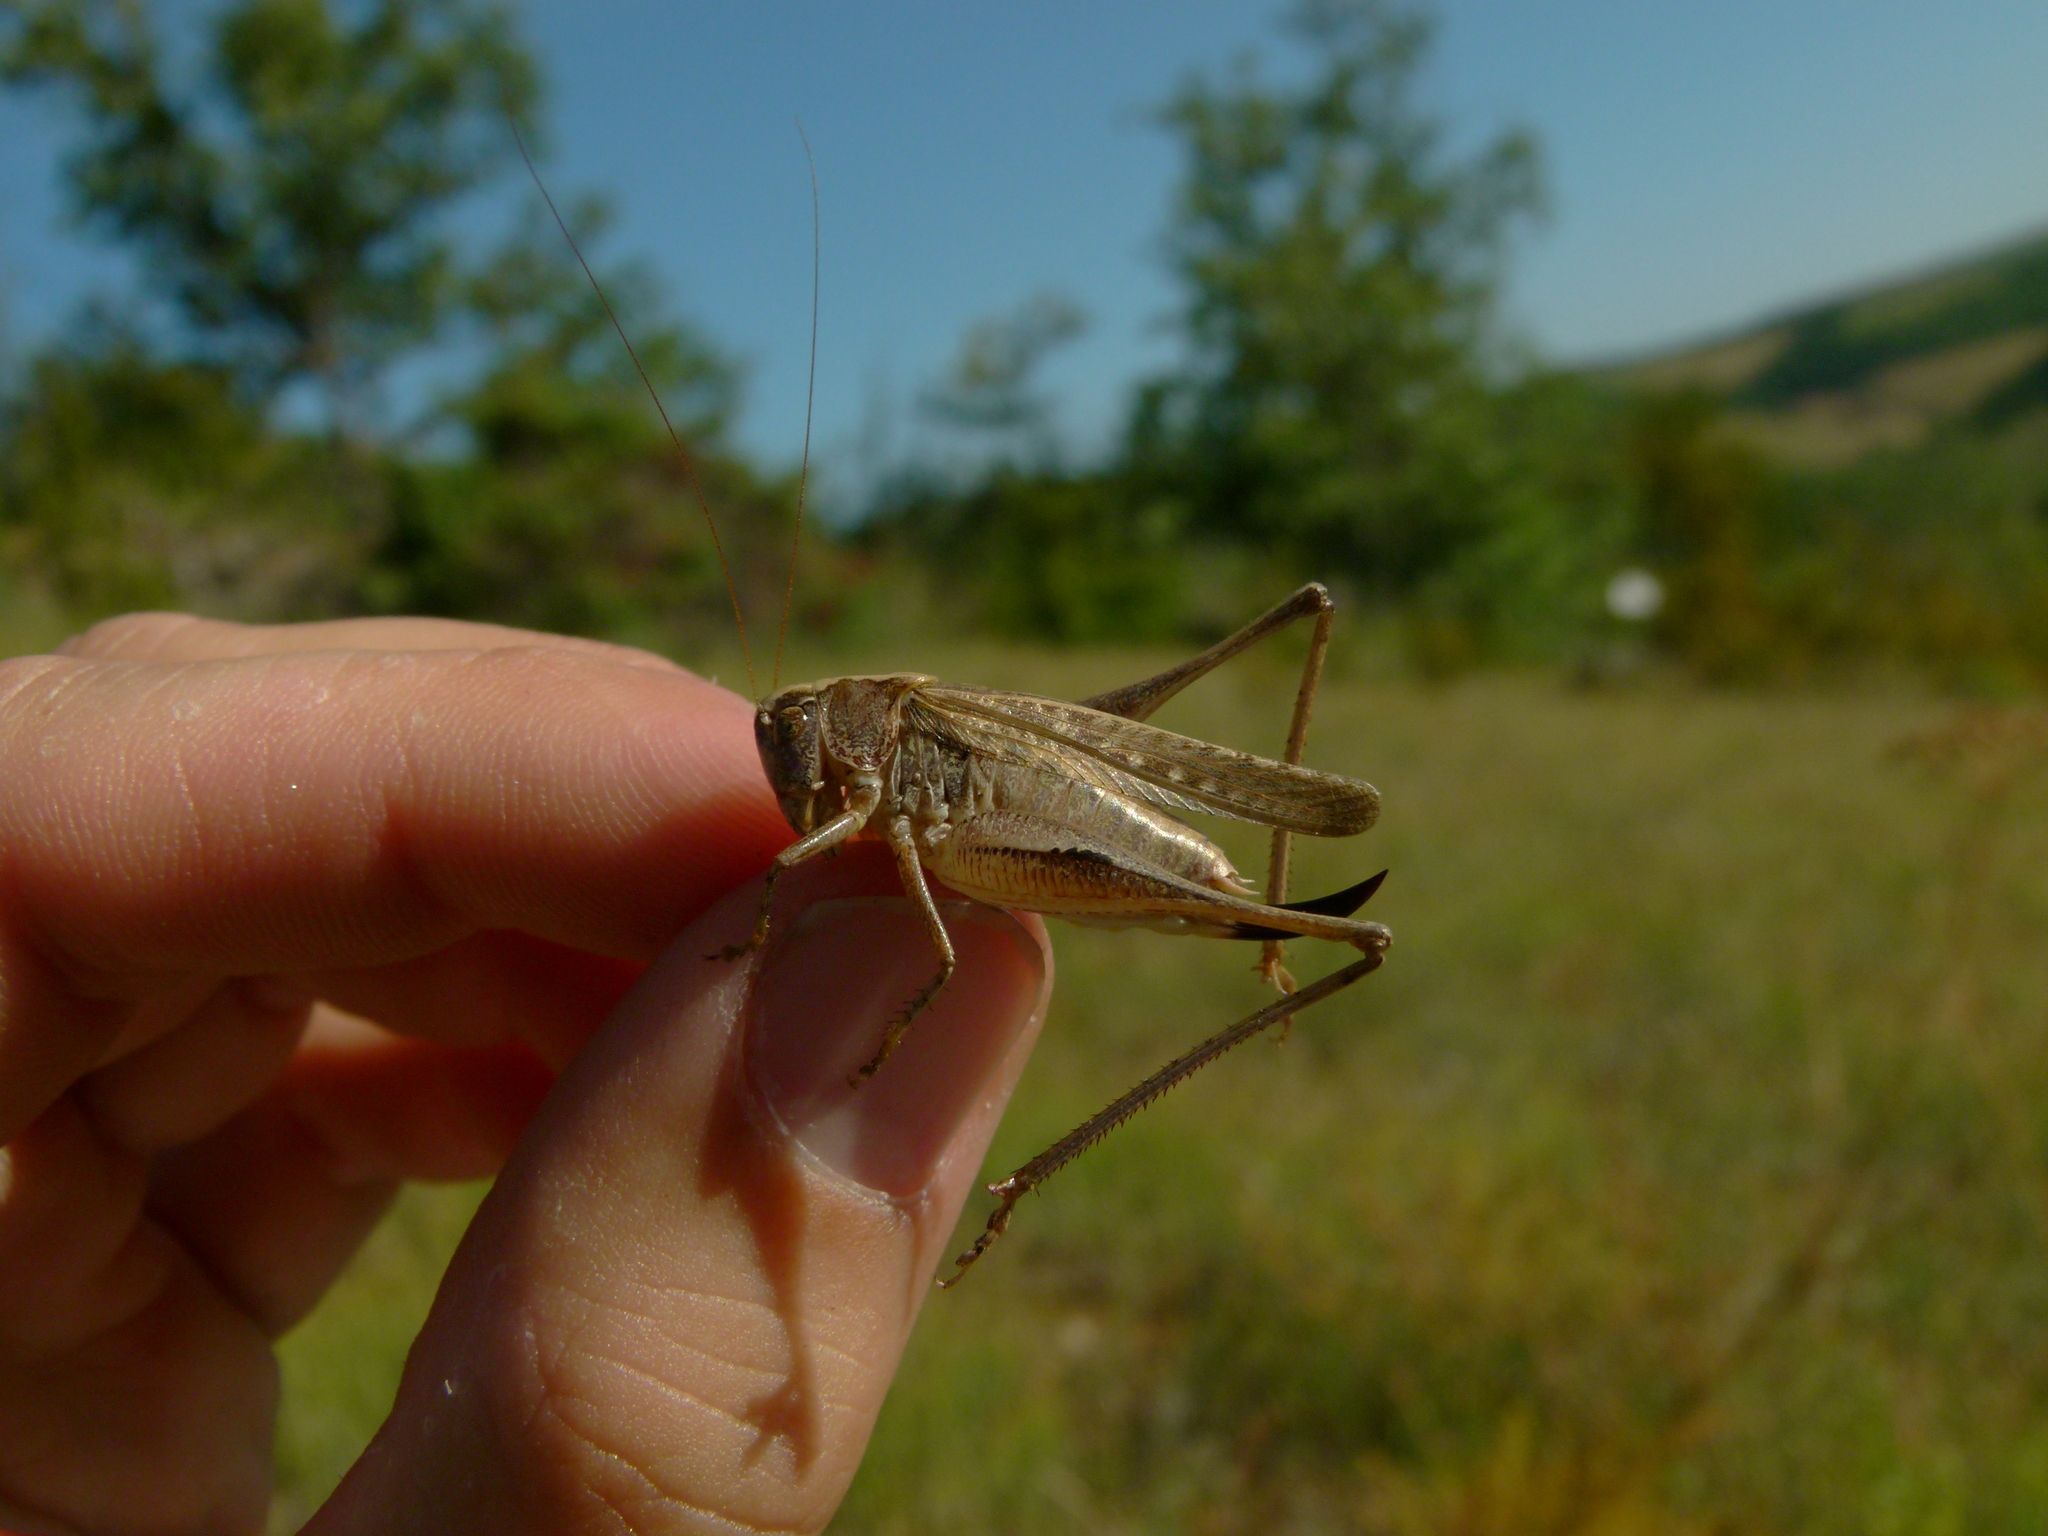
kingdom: Animalia
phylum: Arthropoda
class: Insecta
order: Orthoptera
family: Tettigoniidae
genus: Platycleis
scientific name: Platycleis albopunctata
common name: Grey bush-cricket
